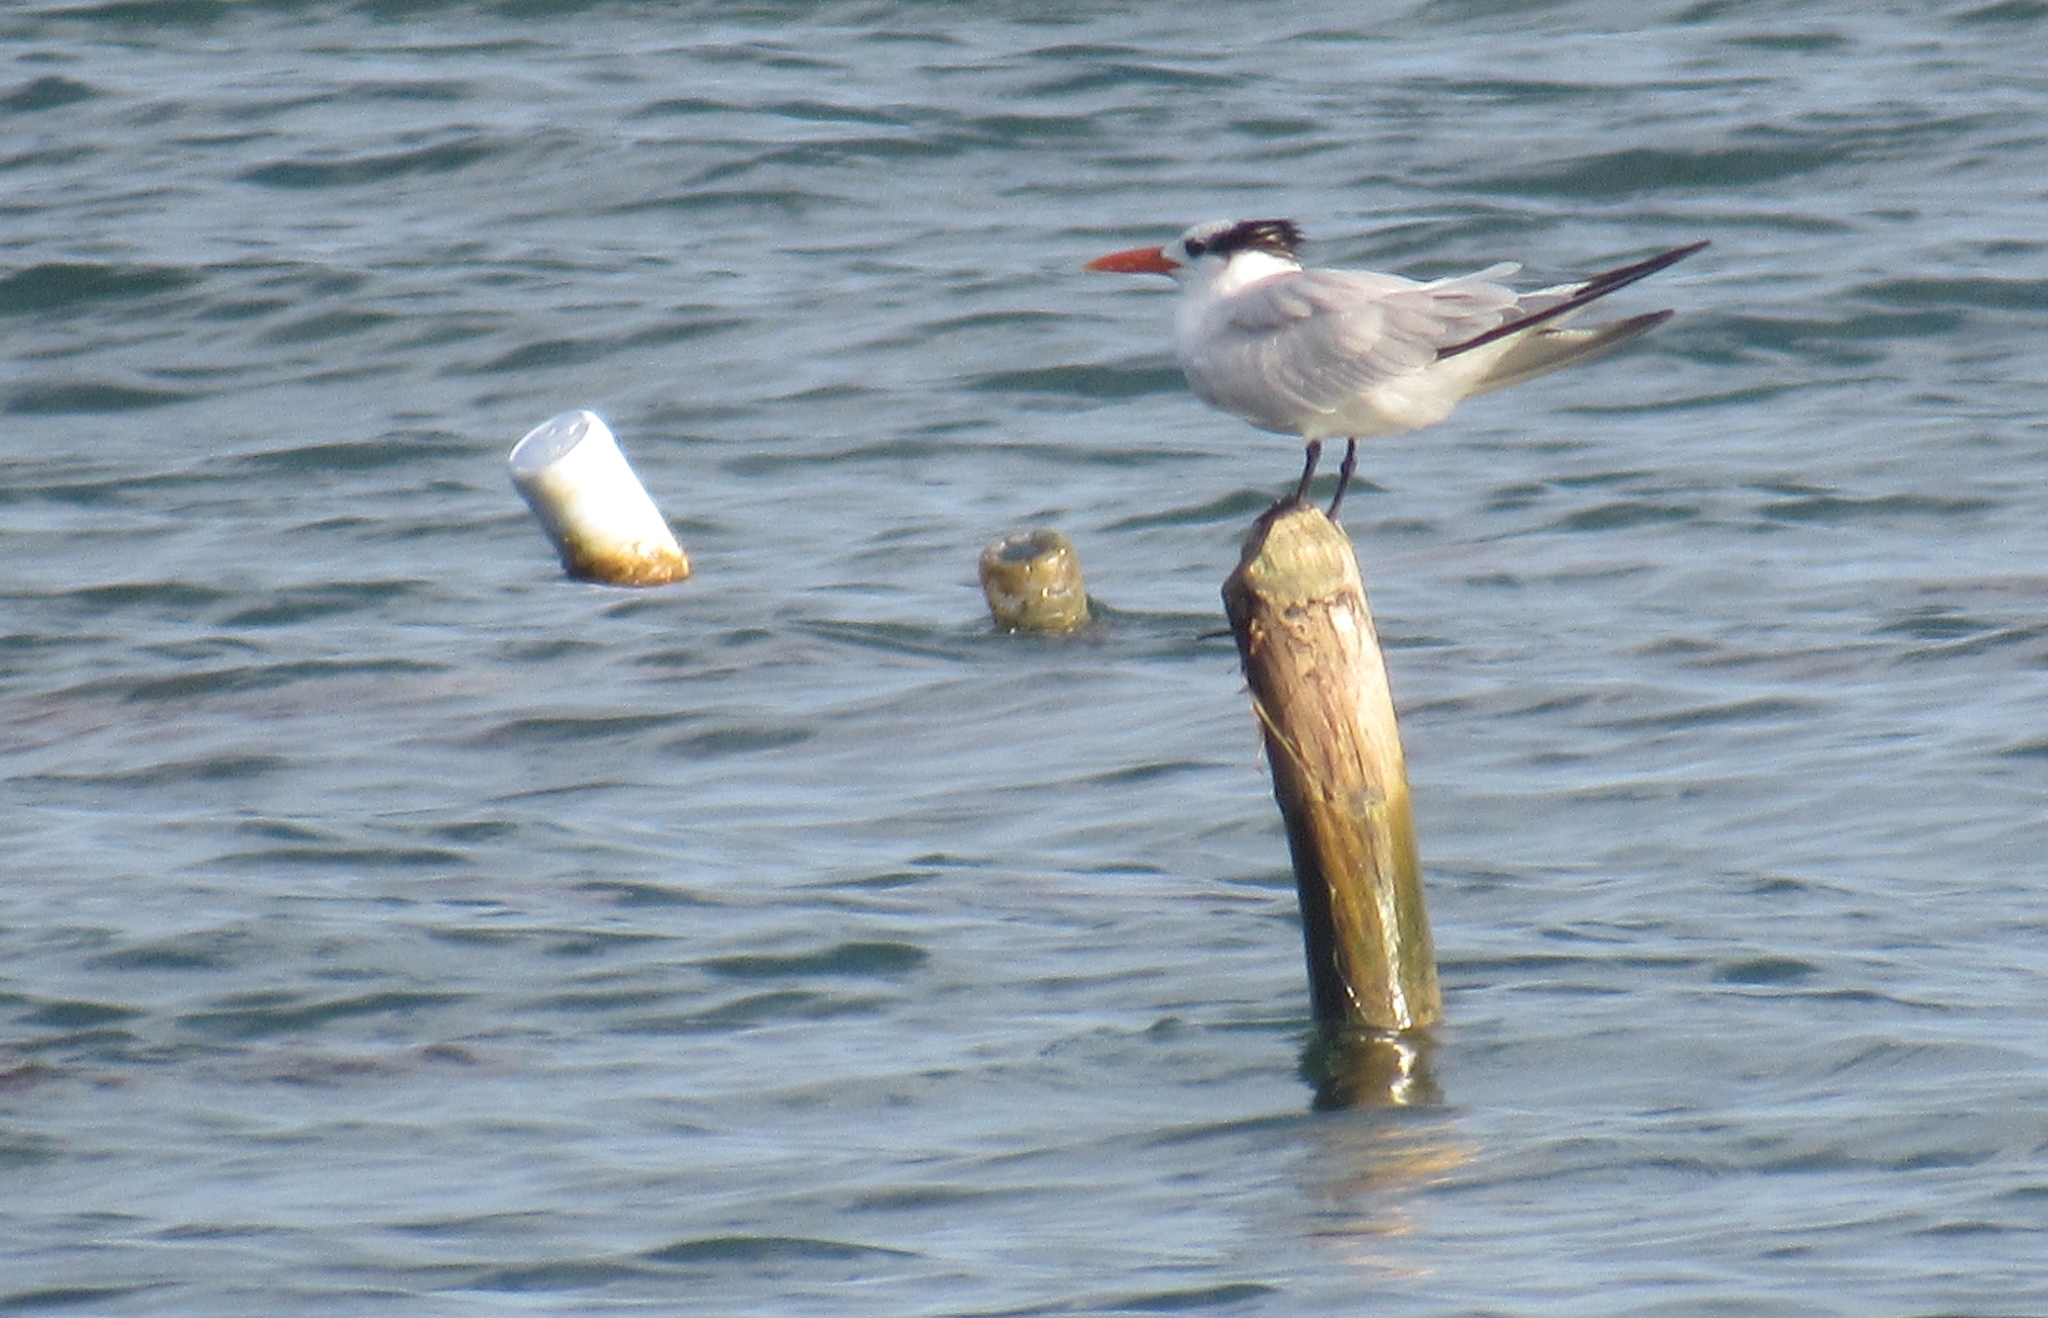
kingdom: Animalia
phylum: Chordata
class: Aves
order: Charadriiformes
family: Laridae
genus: Thalasseus
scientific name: Thalasseus maximus
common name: Royal tern
